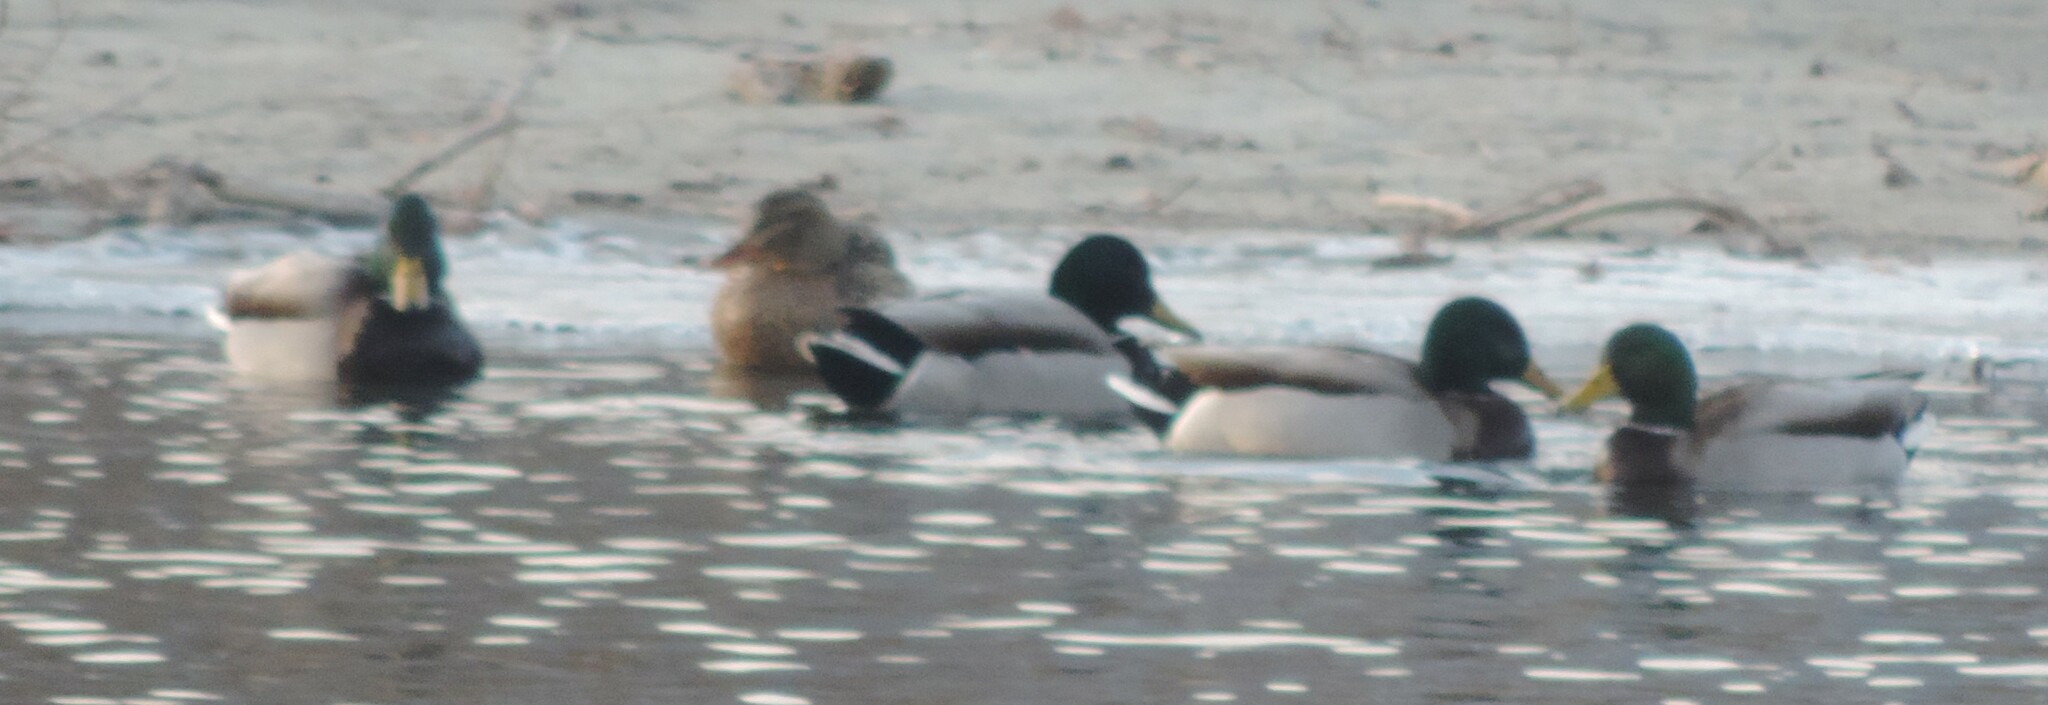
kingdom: Animalia
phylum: Chordata
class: Aves
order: Anseriformes
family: Anatidae
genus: Anas
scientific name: Anas platyrhynchos
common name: Mallard
